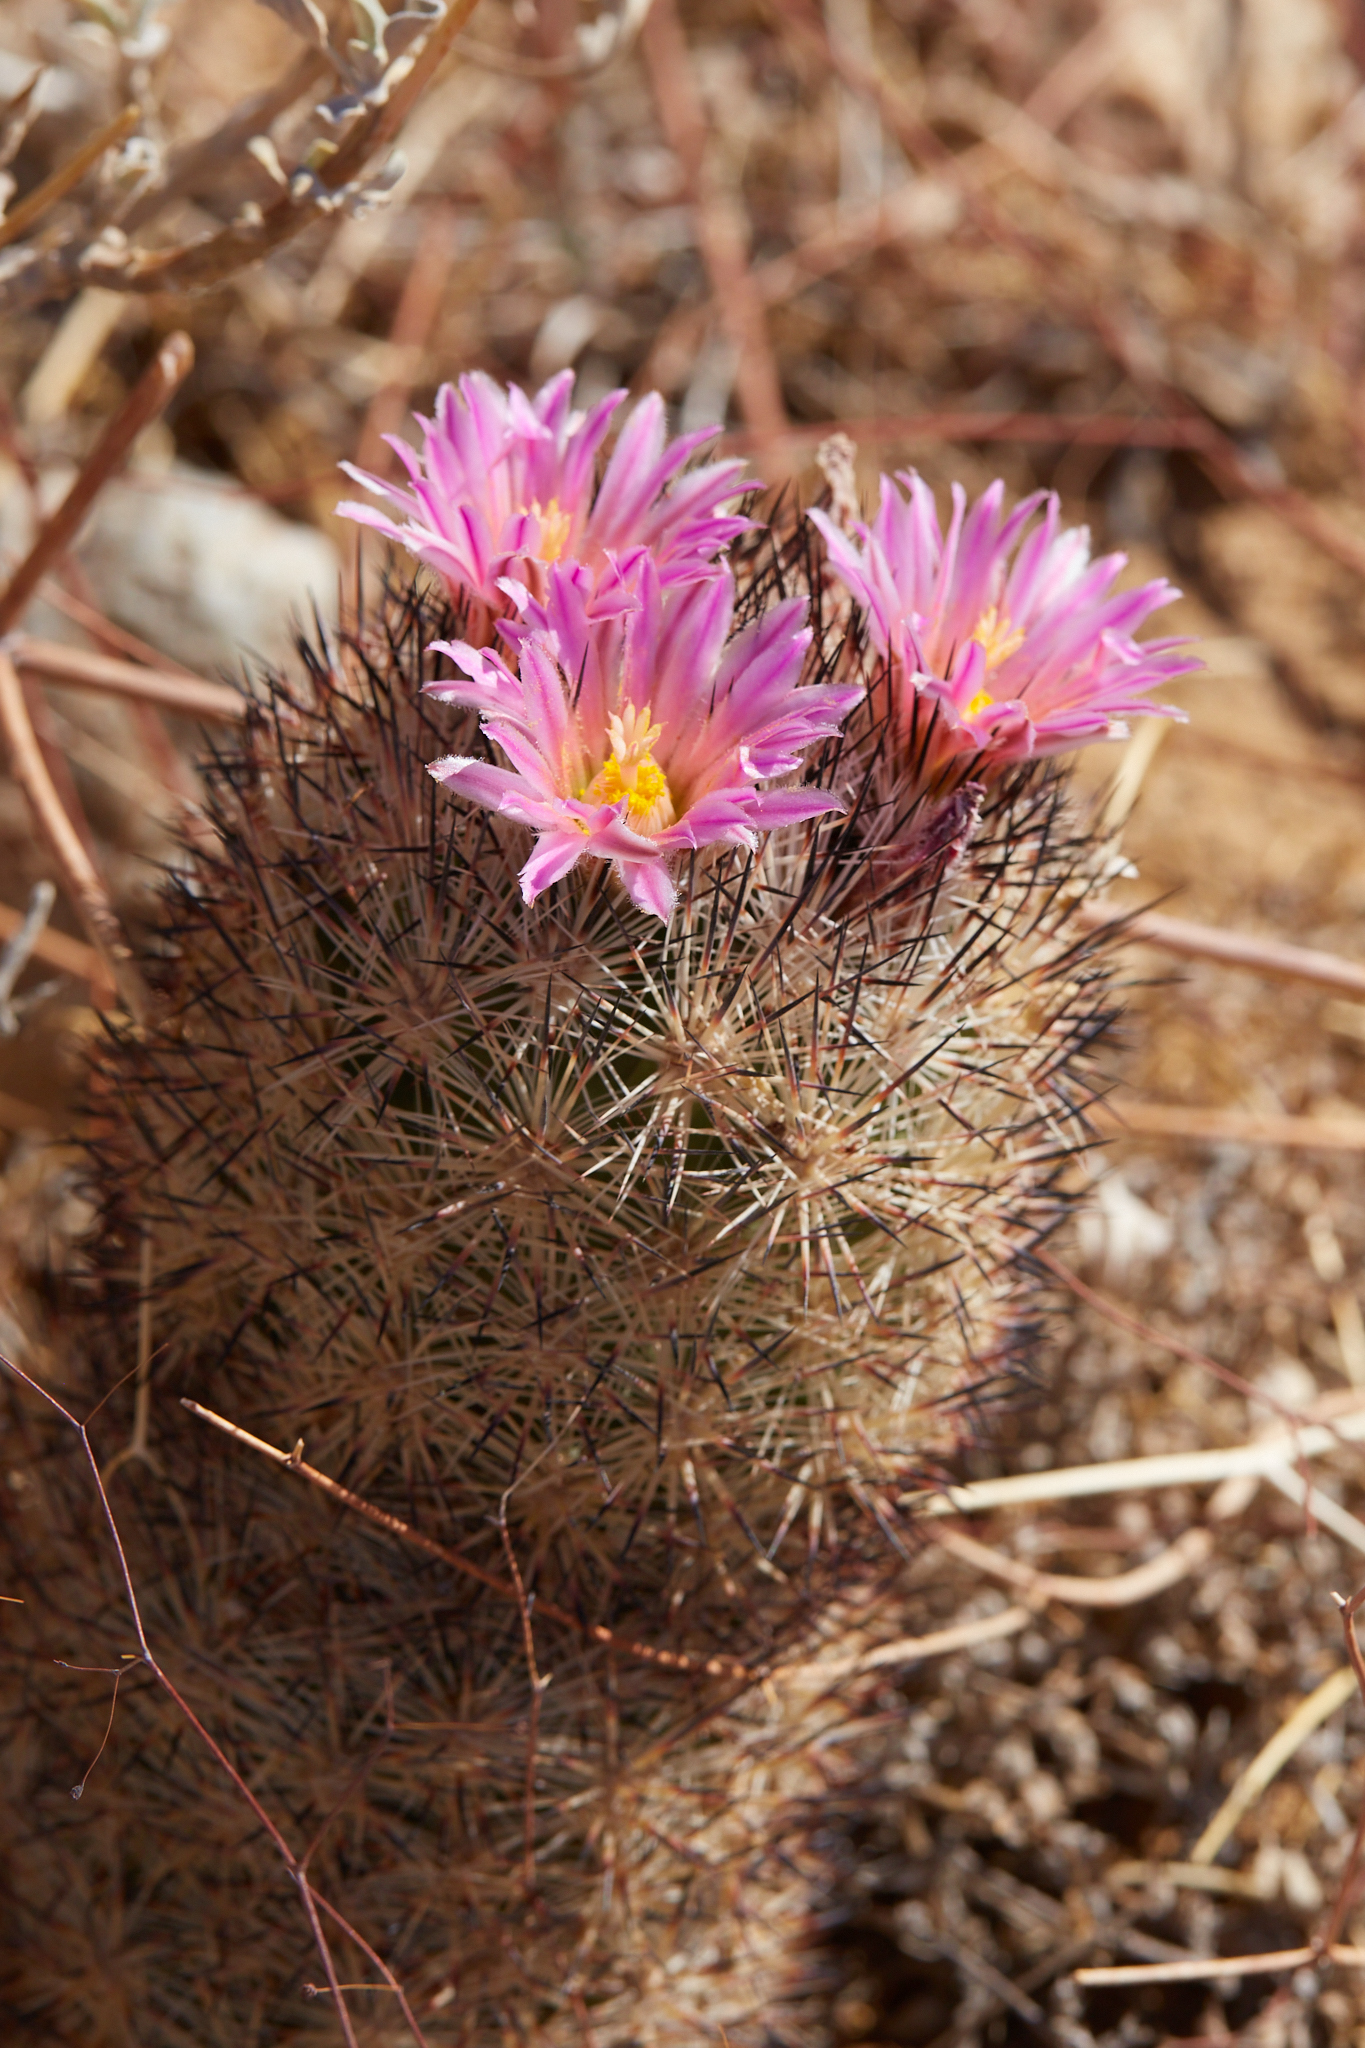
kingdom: Plantae
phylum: Tracheophyta
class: Magnoliopsida
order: Caryophyllales
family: Cactaceae
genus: Pelecyphora
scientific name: Pelecyphora alversonii
